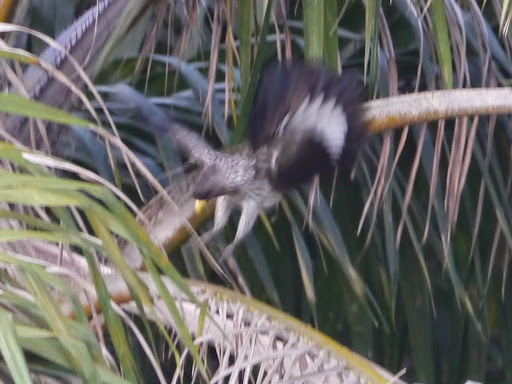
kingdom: Animalia
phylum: Chordata
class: Aves
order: Musophagiformes
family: Musophagidae
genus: Crinifer
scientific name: Crinifer piscator
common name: Western plantain-eater
